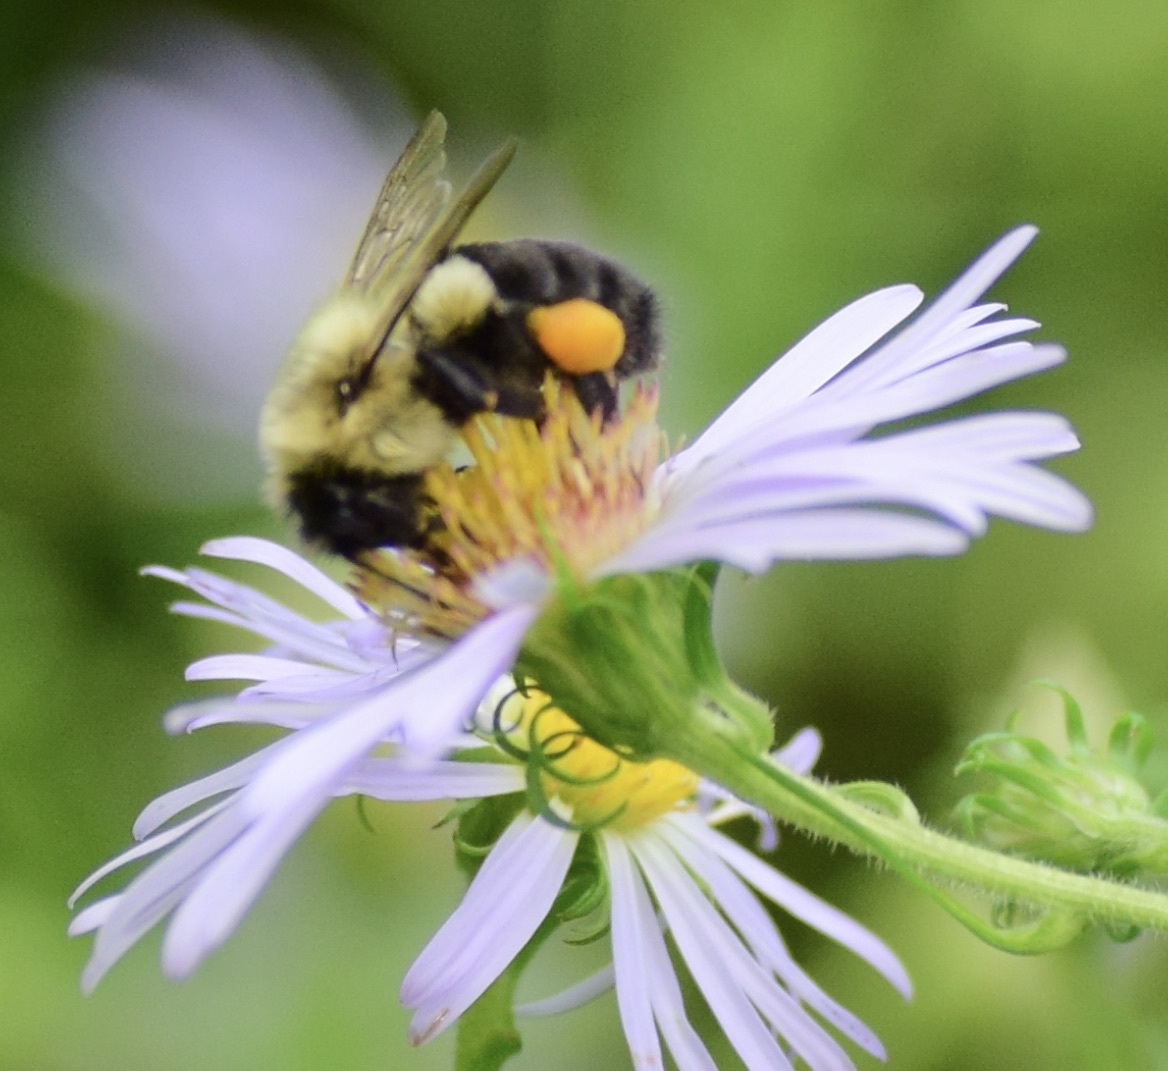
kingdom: Animalia
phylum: Arthropoda
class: Insecta
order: Hymenoptera
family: Apidae
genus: Bombus
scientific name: Bombus impatiens
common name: Common eastern bumble bee
